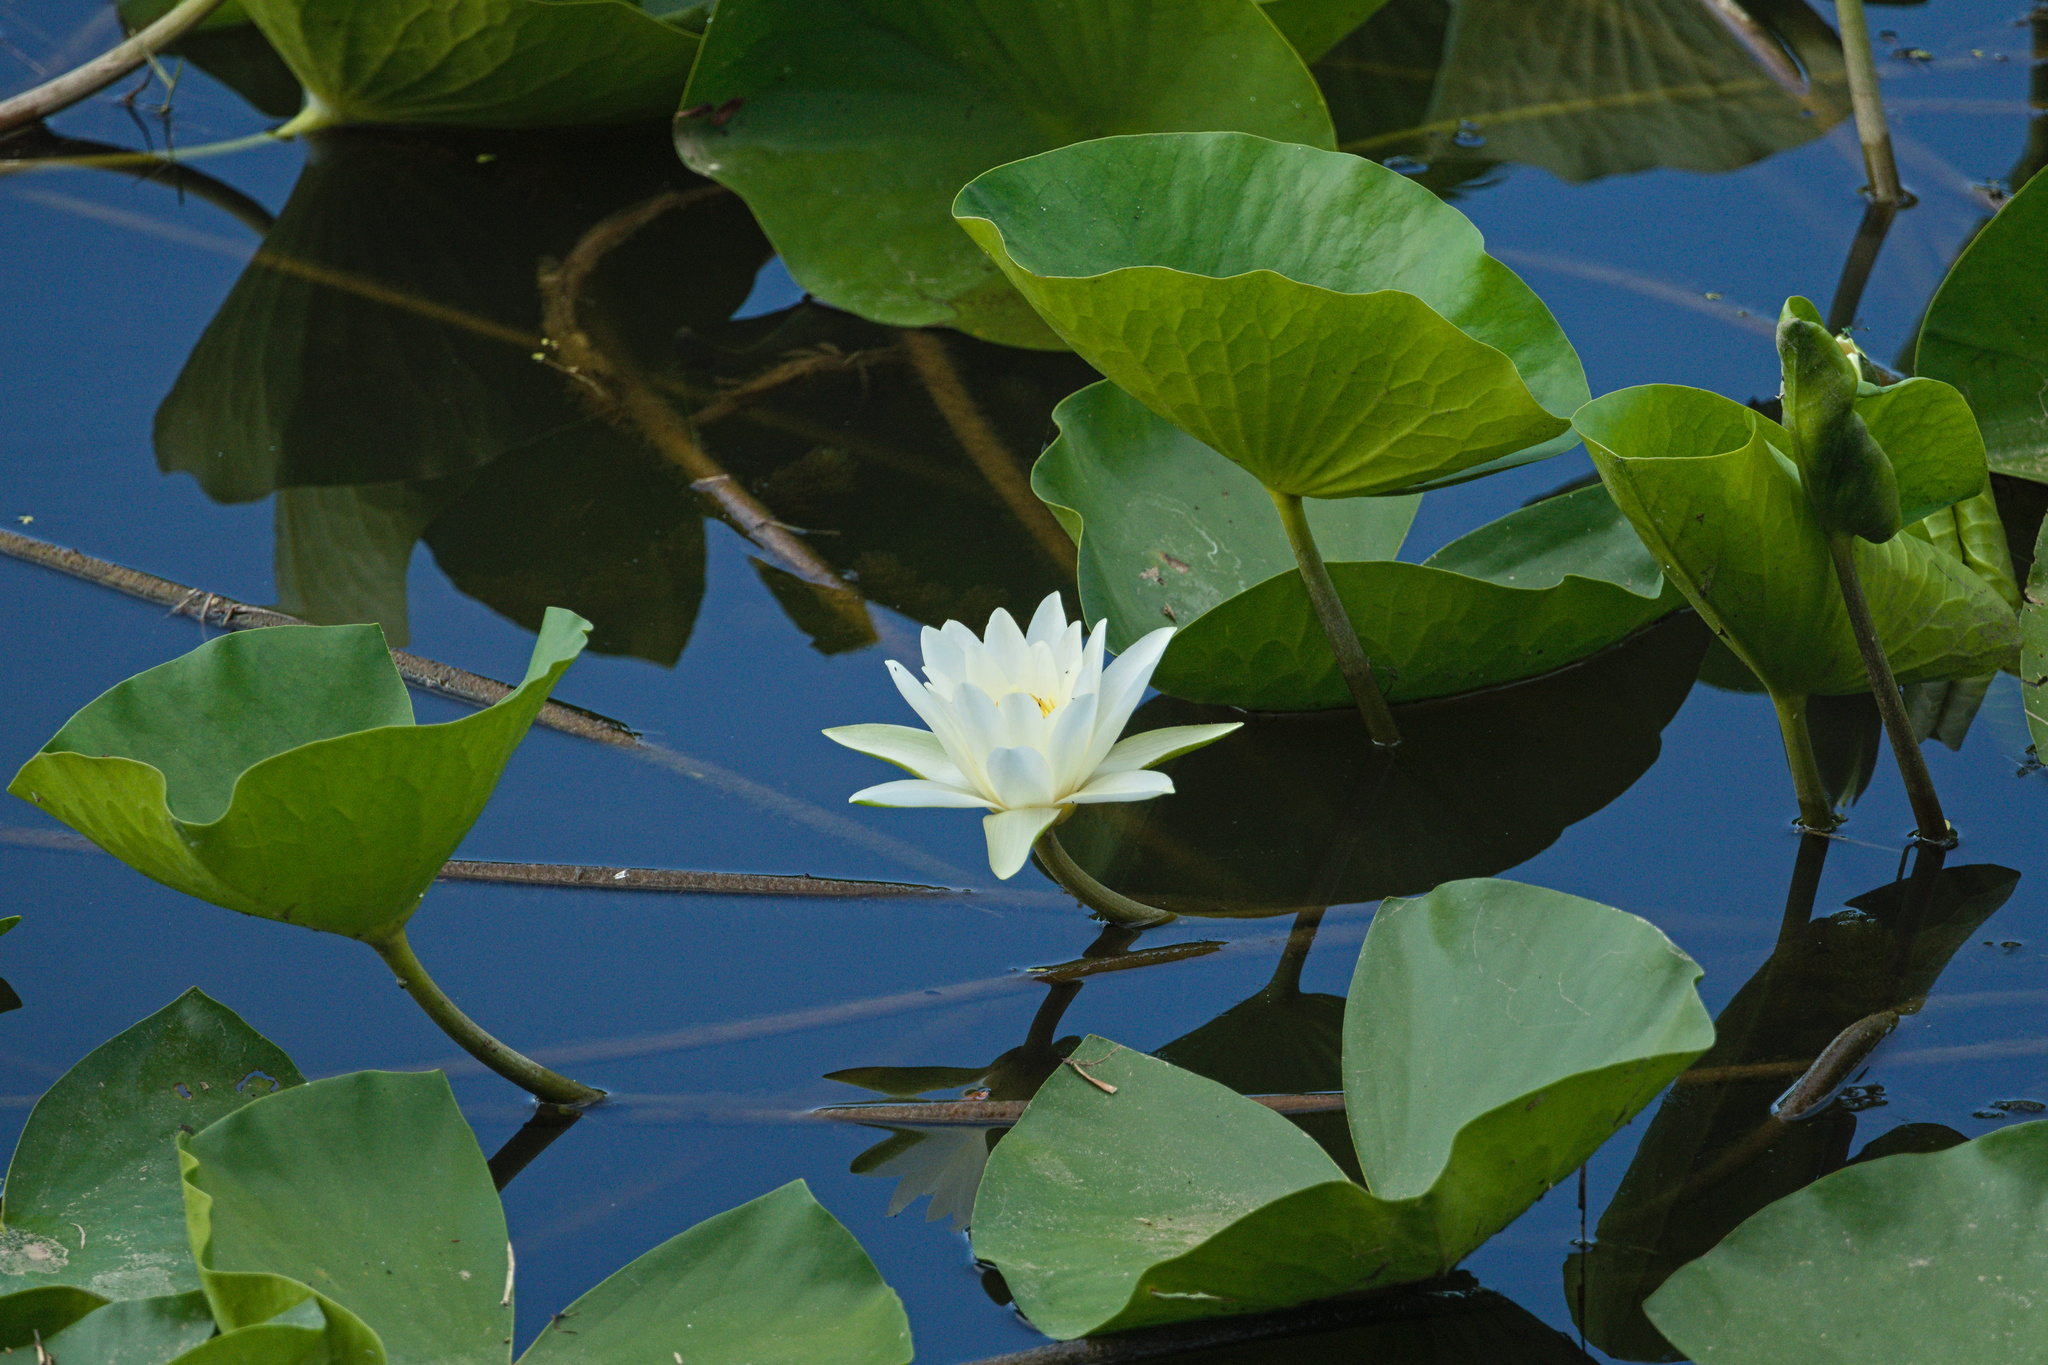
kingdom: Plantae
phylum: Tracheophyta
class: Magnoliopsida
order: Nymphaeales
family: Nymphaeaceae
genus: Nymphaea
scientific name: Nymphaea alba
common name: White water-lily
